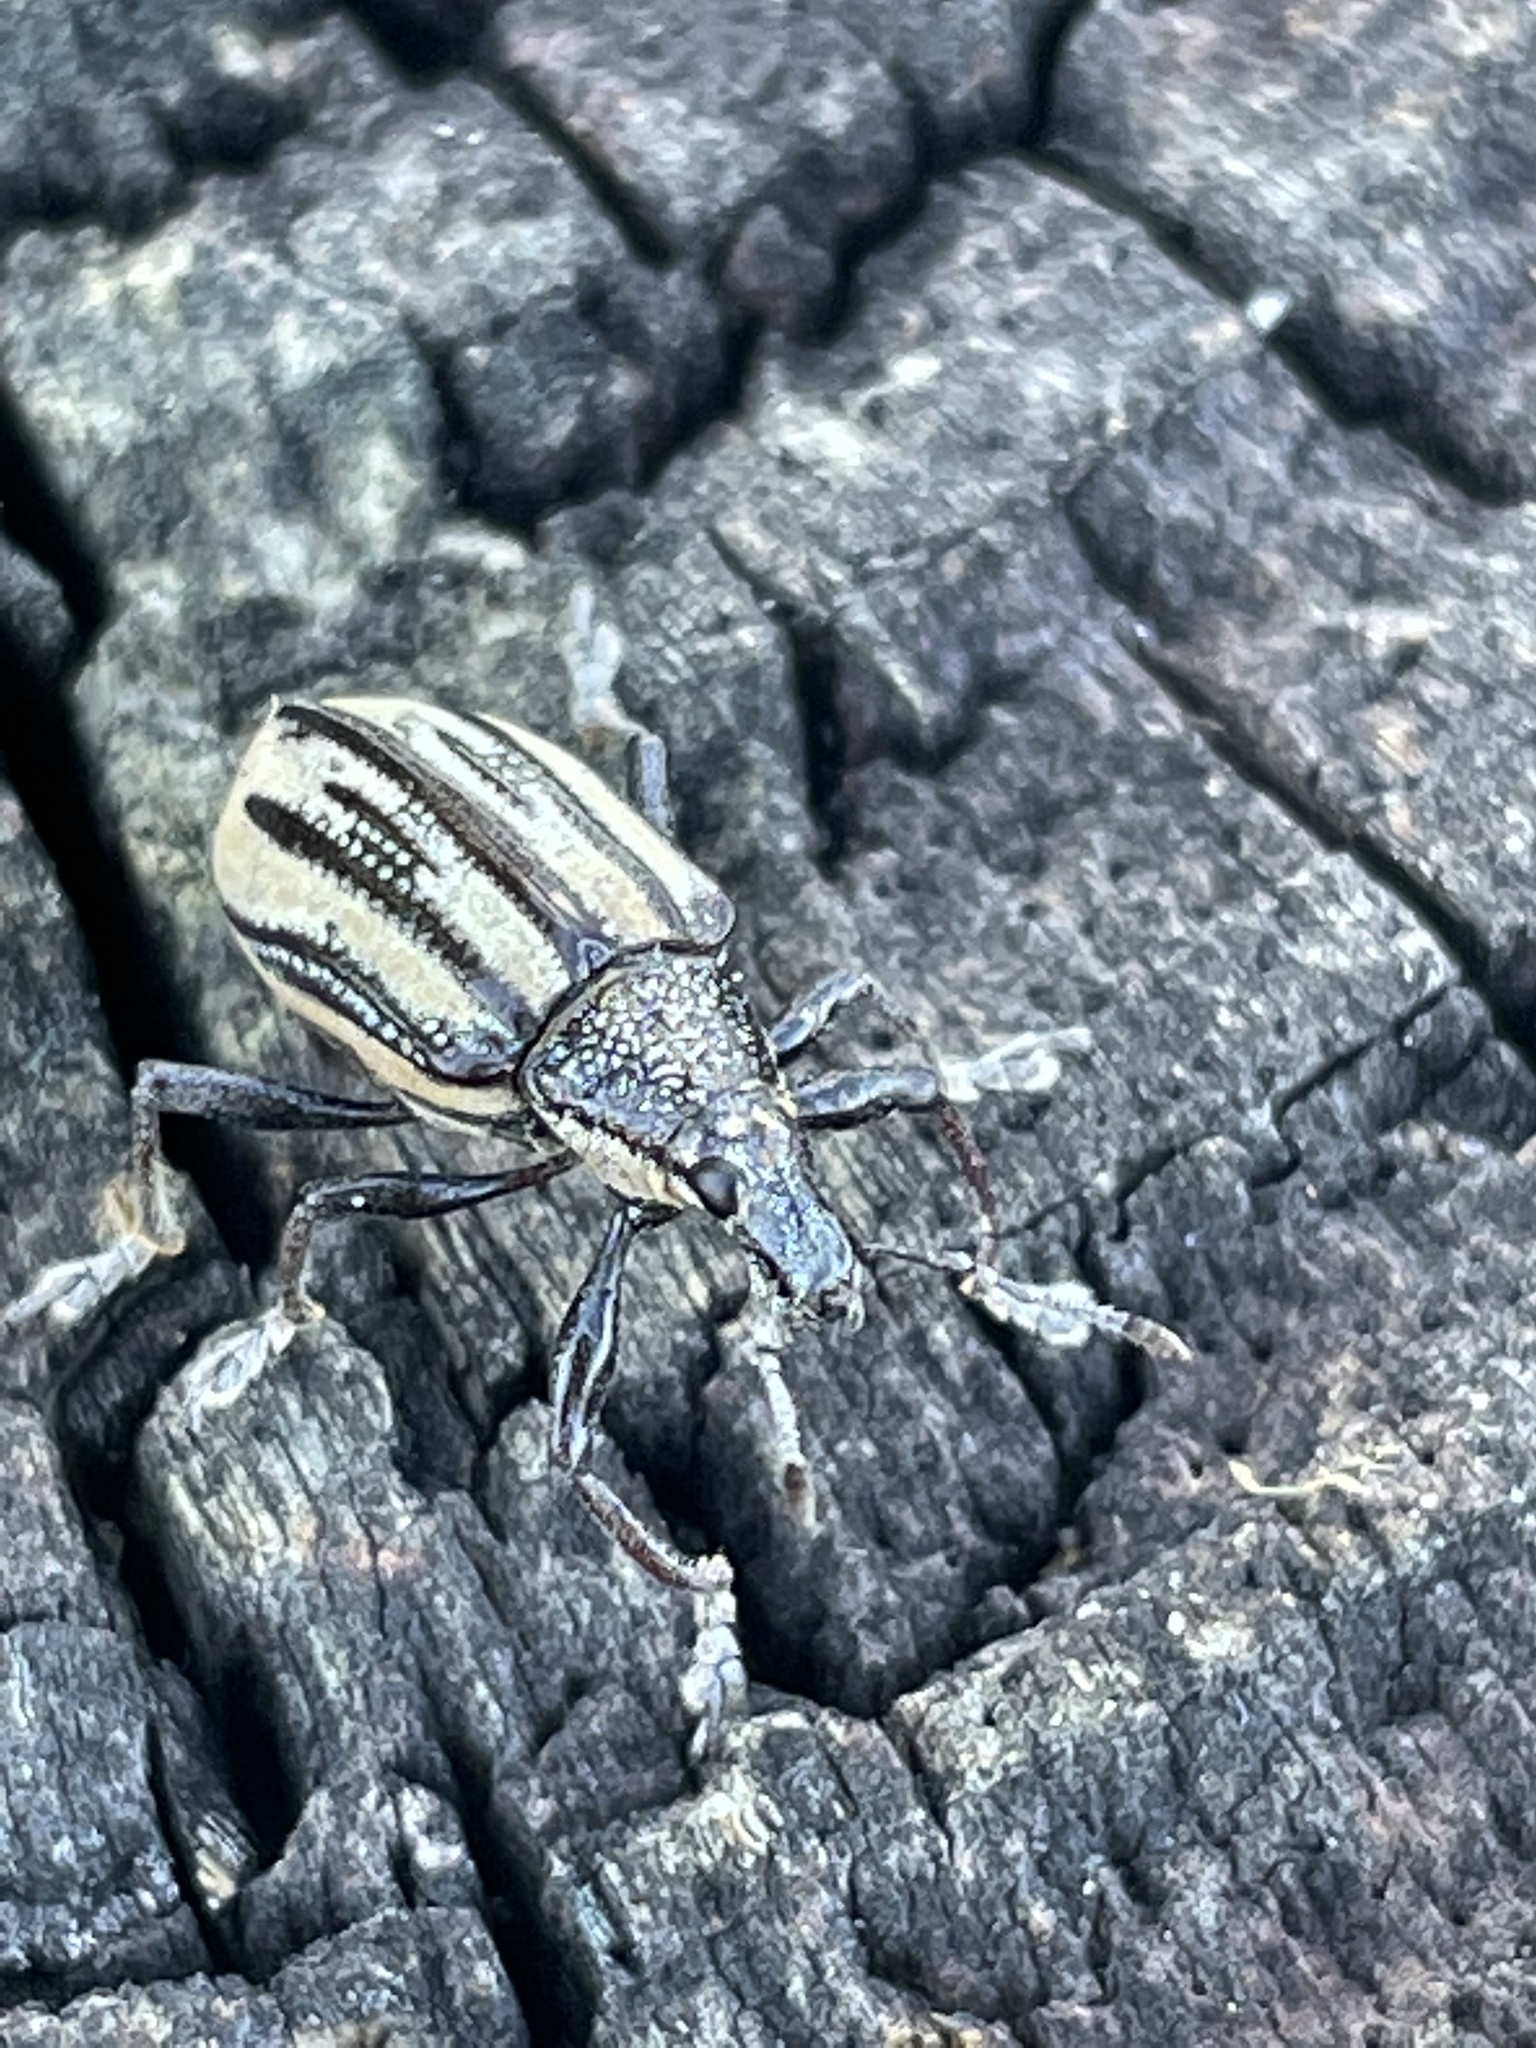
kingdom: Animalia
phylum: Arthropoda
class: Insecta
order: Coleoptera
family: Curculionidae
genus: Diaprepes
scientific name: Diaprepes abbreviatus
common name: Root weevil
